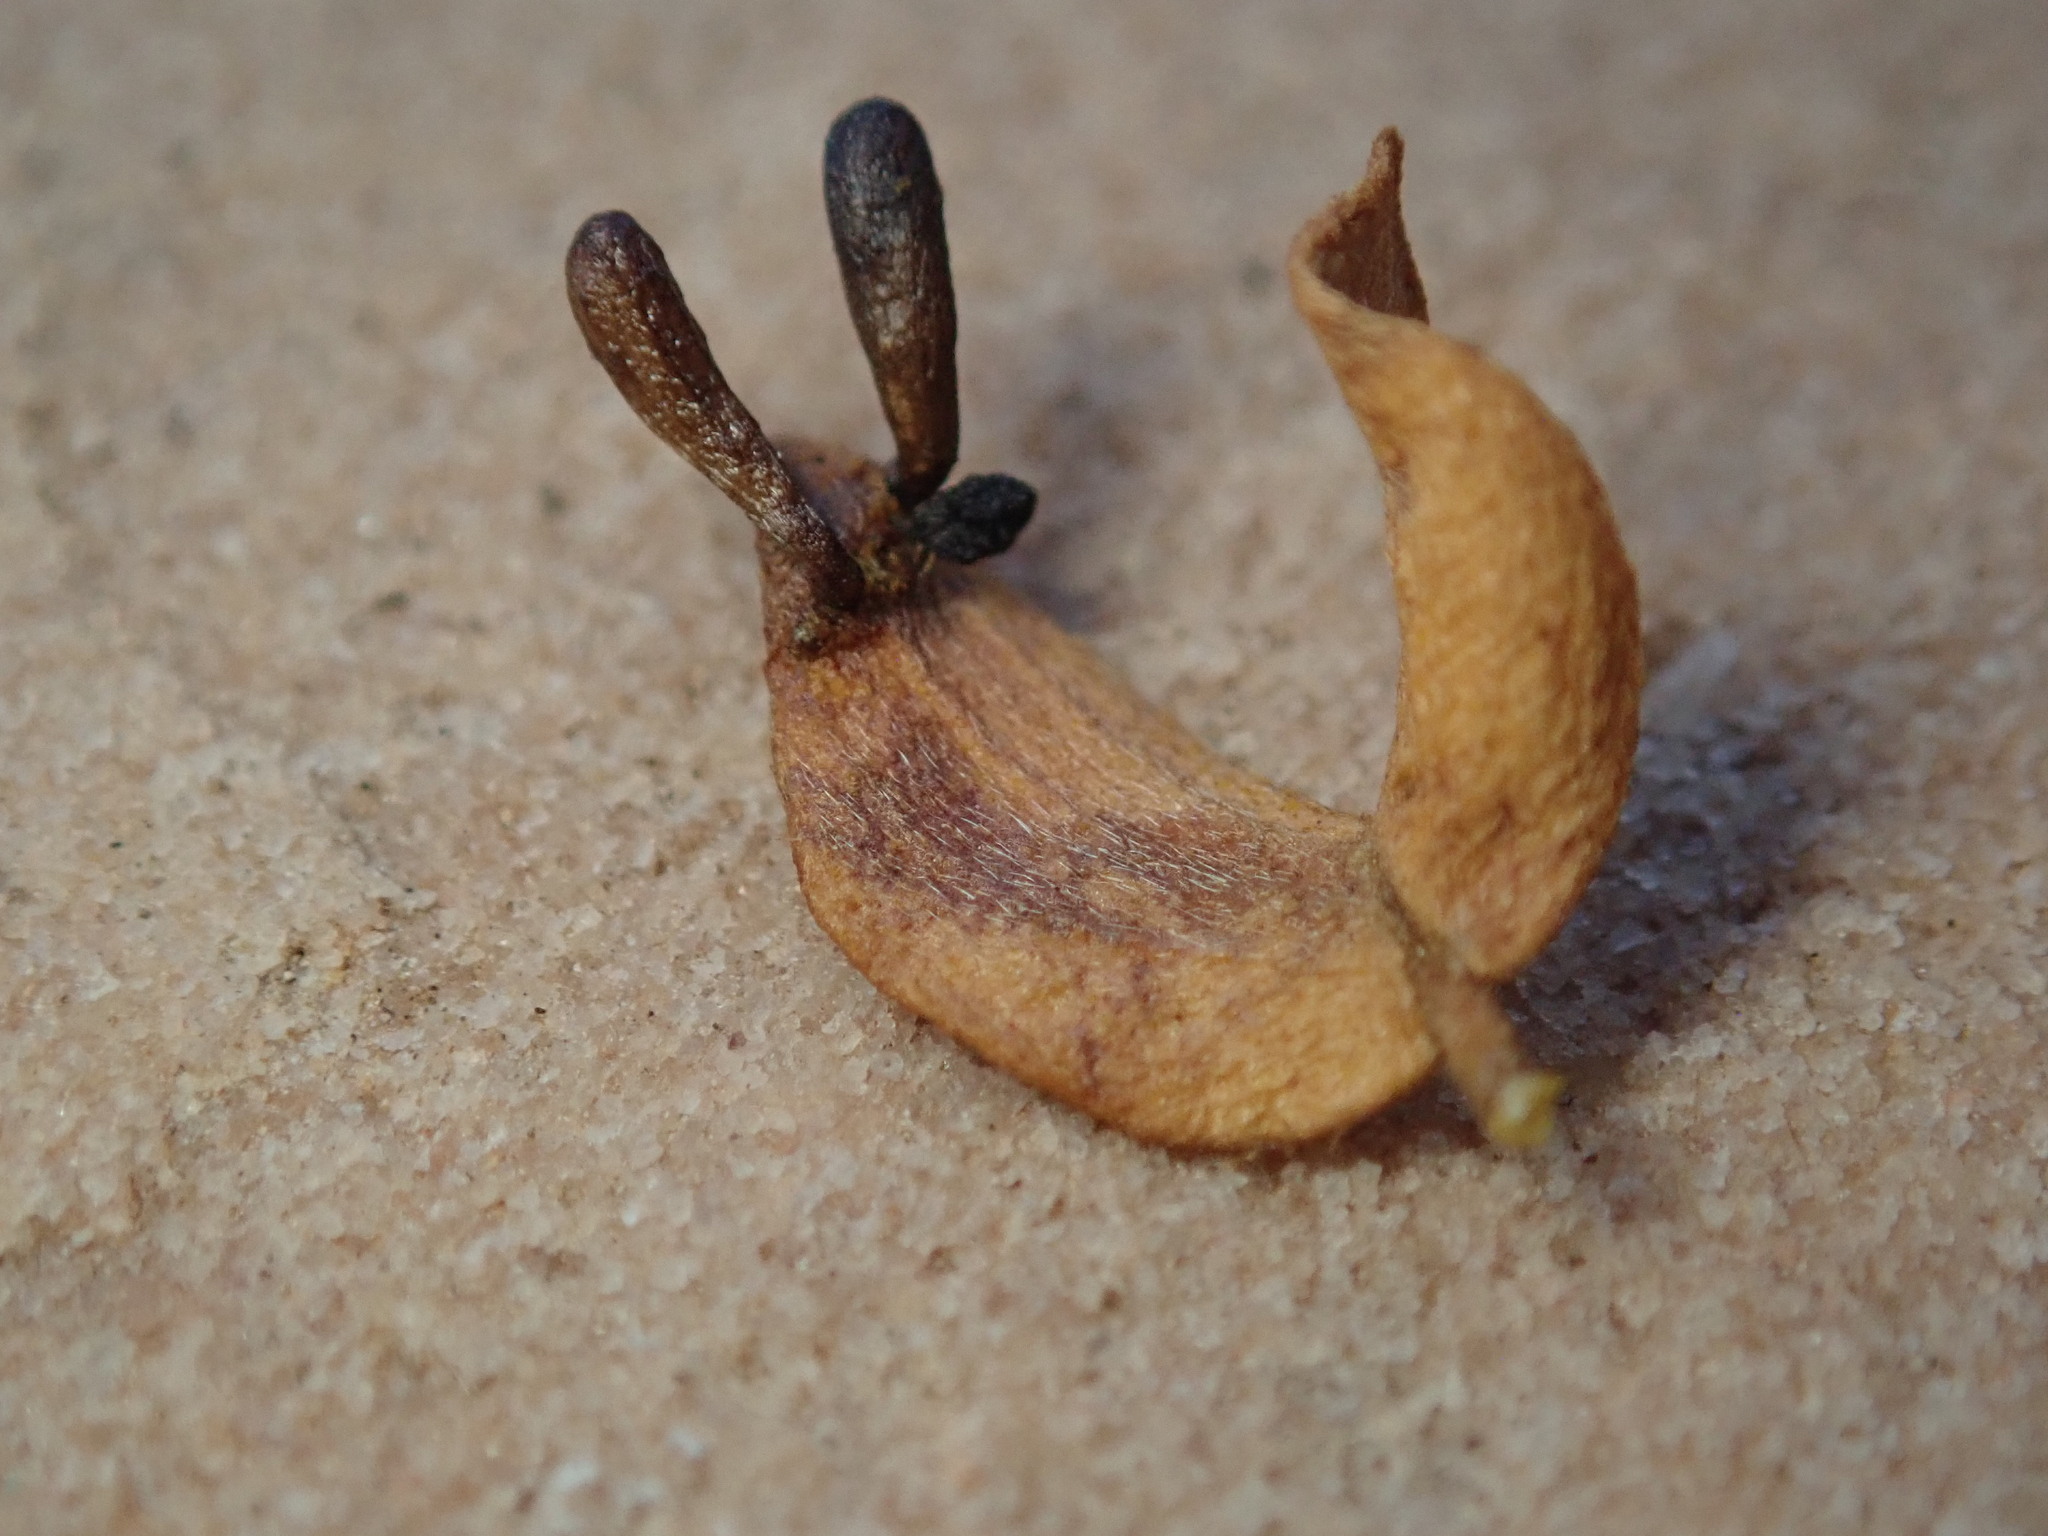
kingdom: Animalia
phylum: Arthropoda
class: Insecta
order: Diptera
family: Cecidomyiidae
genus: Asphondylia
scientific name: Asphondylia clavata
